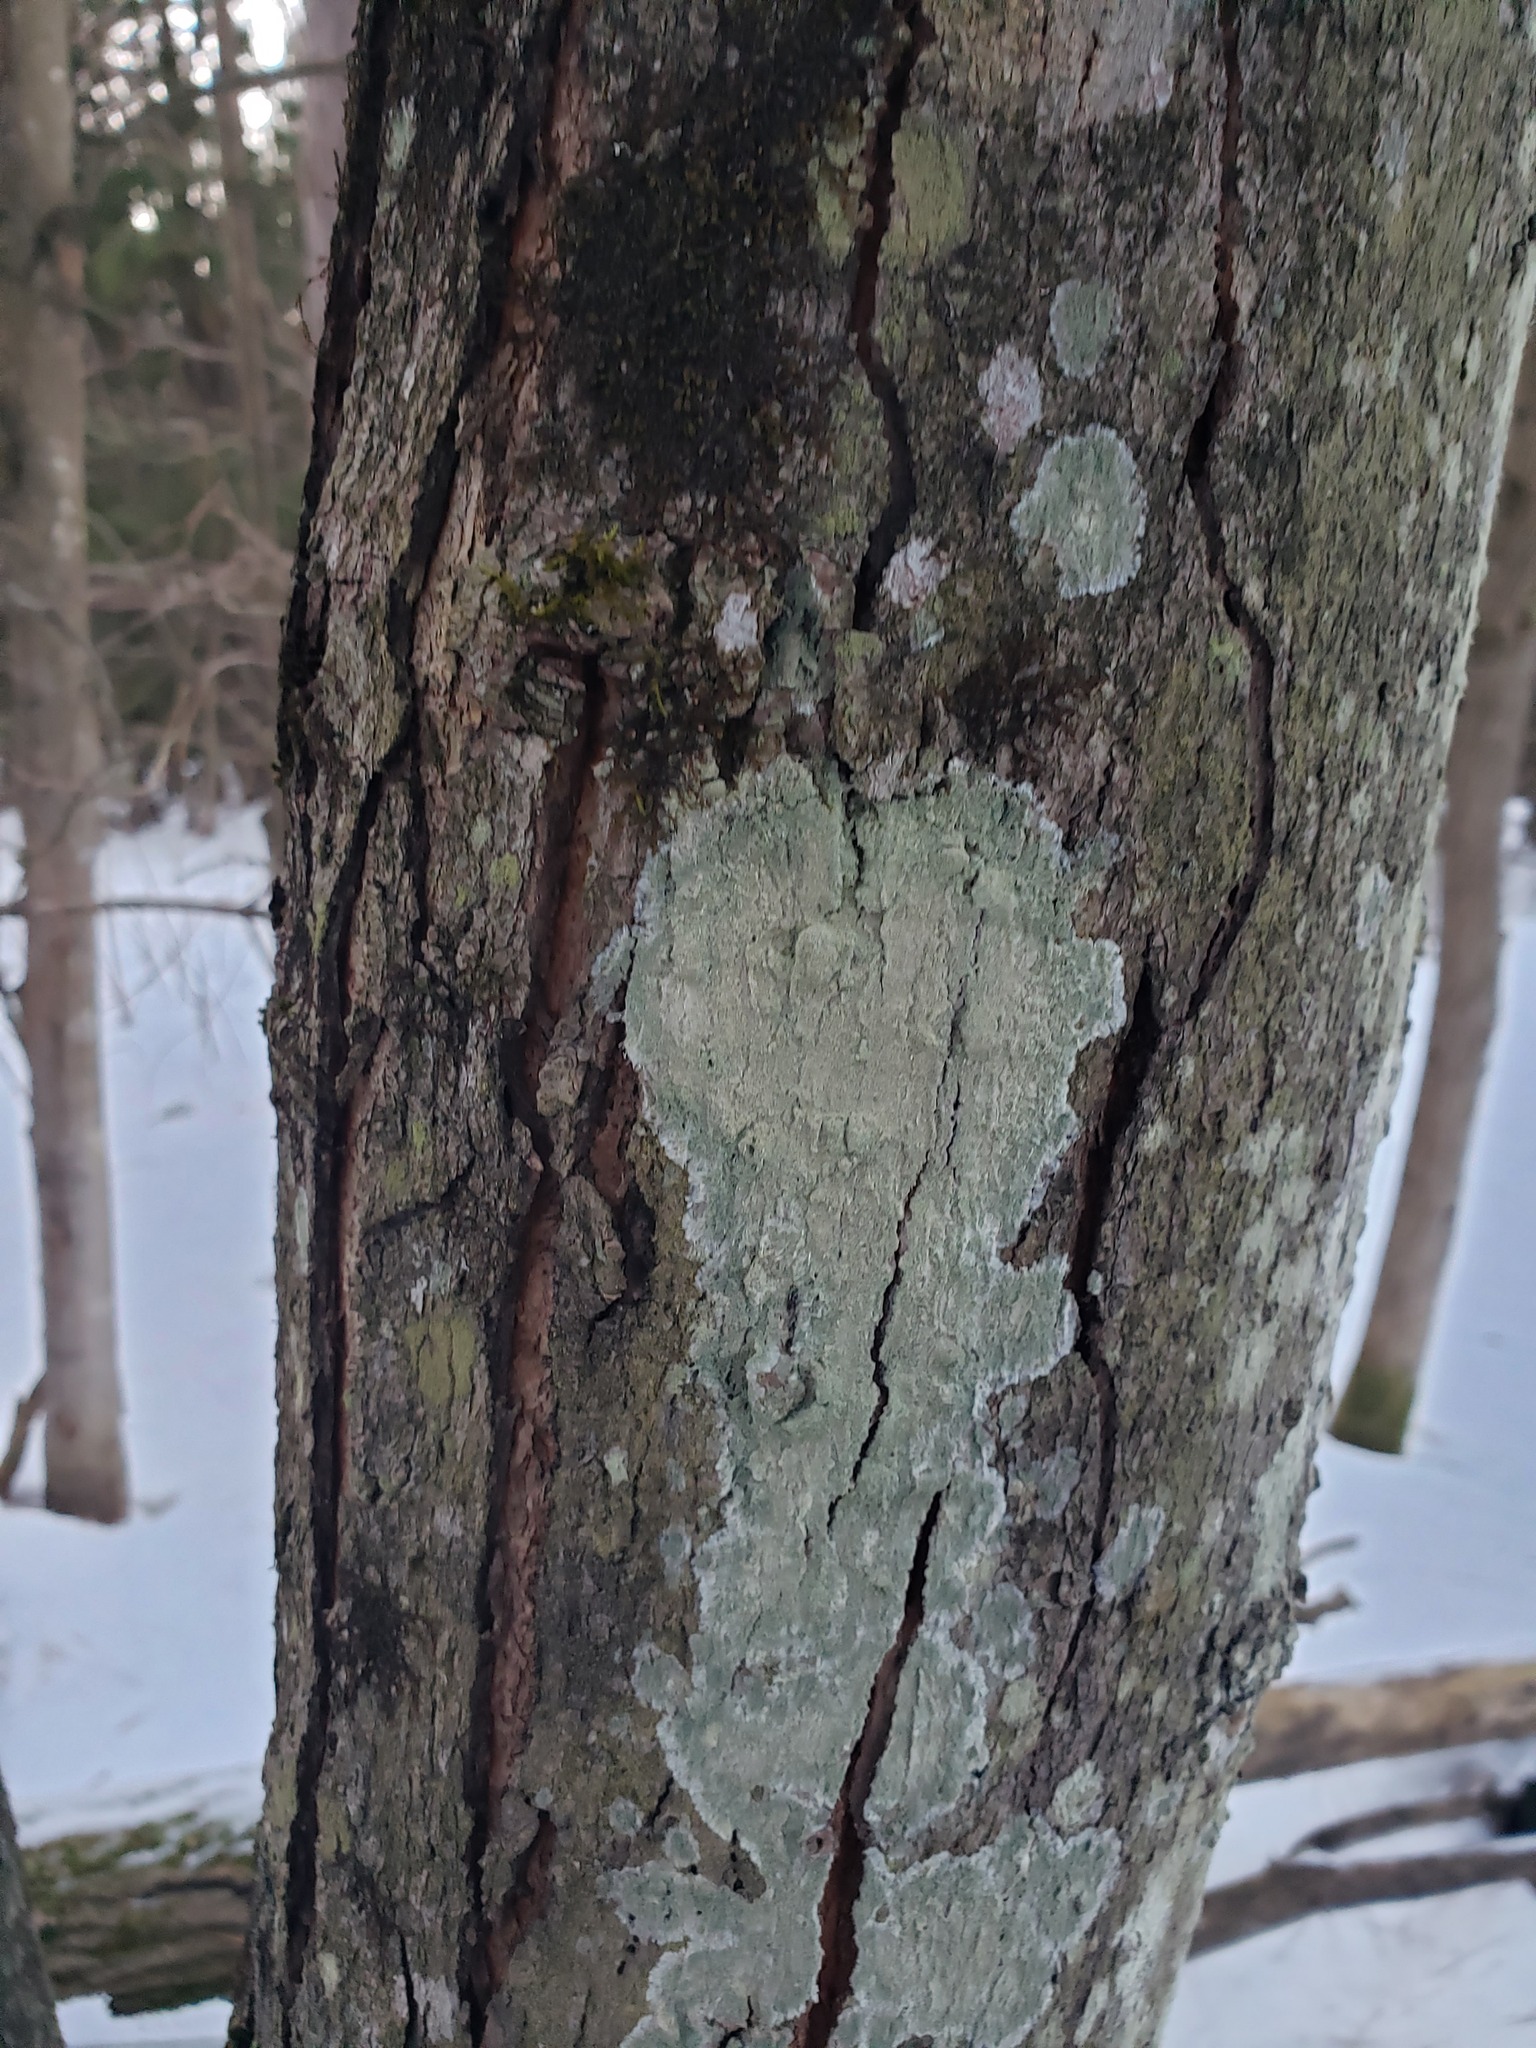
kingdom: Fungi
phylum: Ascomycota
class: Lecanoromycetes
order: Pertusariales
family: Pertusariaceae
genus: Verseghya
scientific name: Verseghya thysanophora
